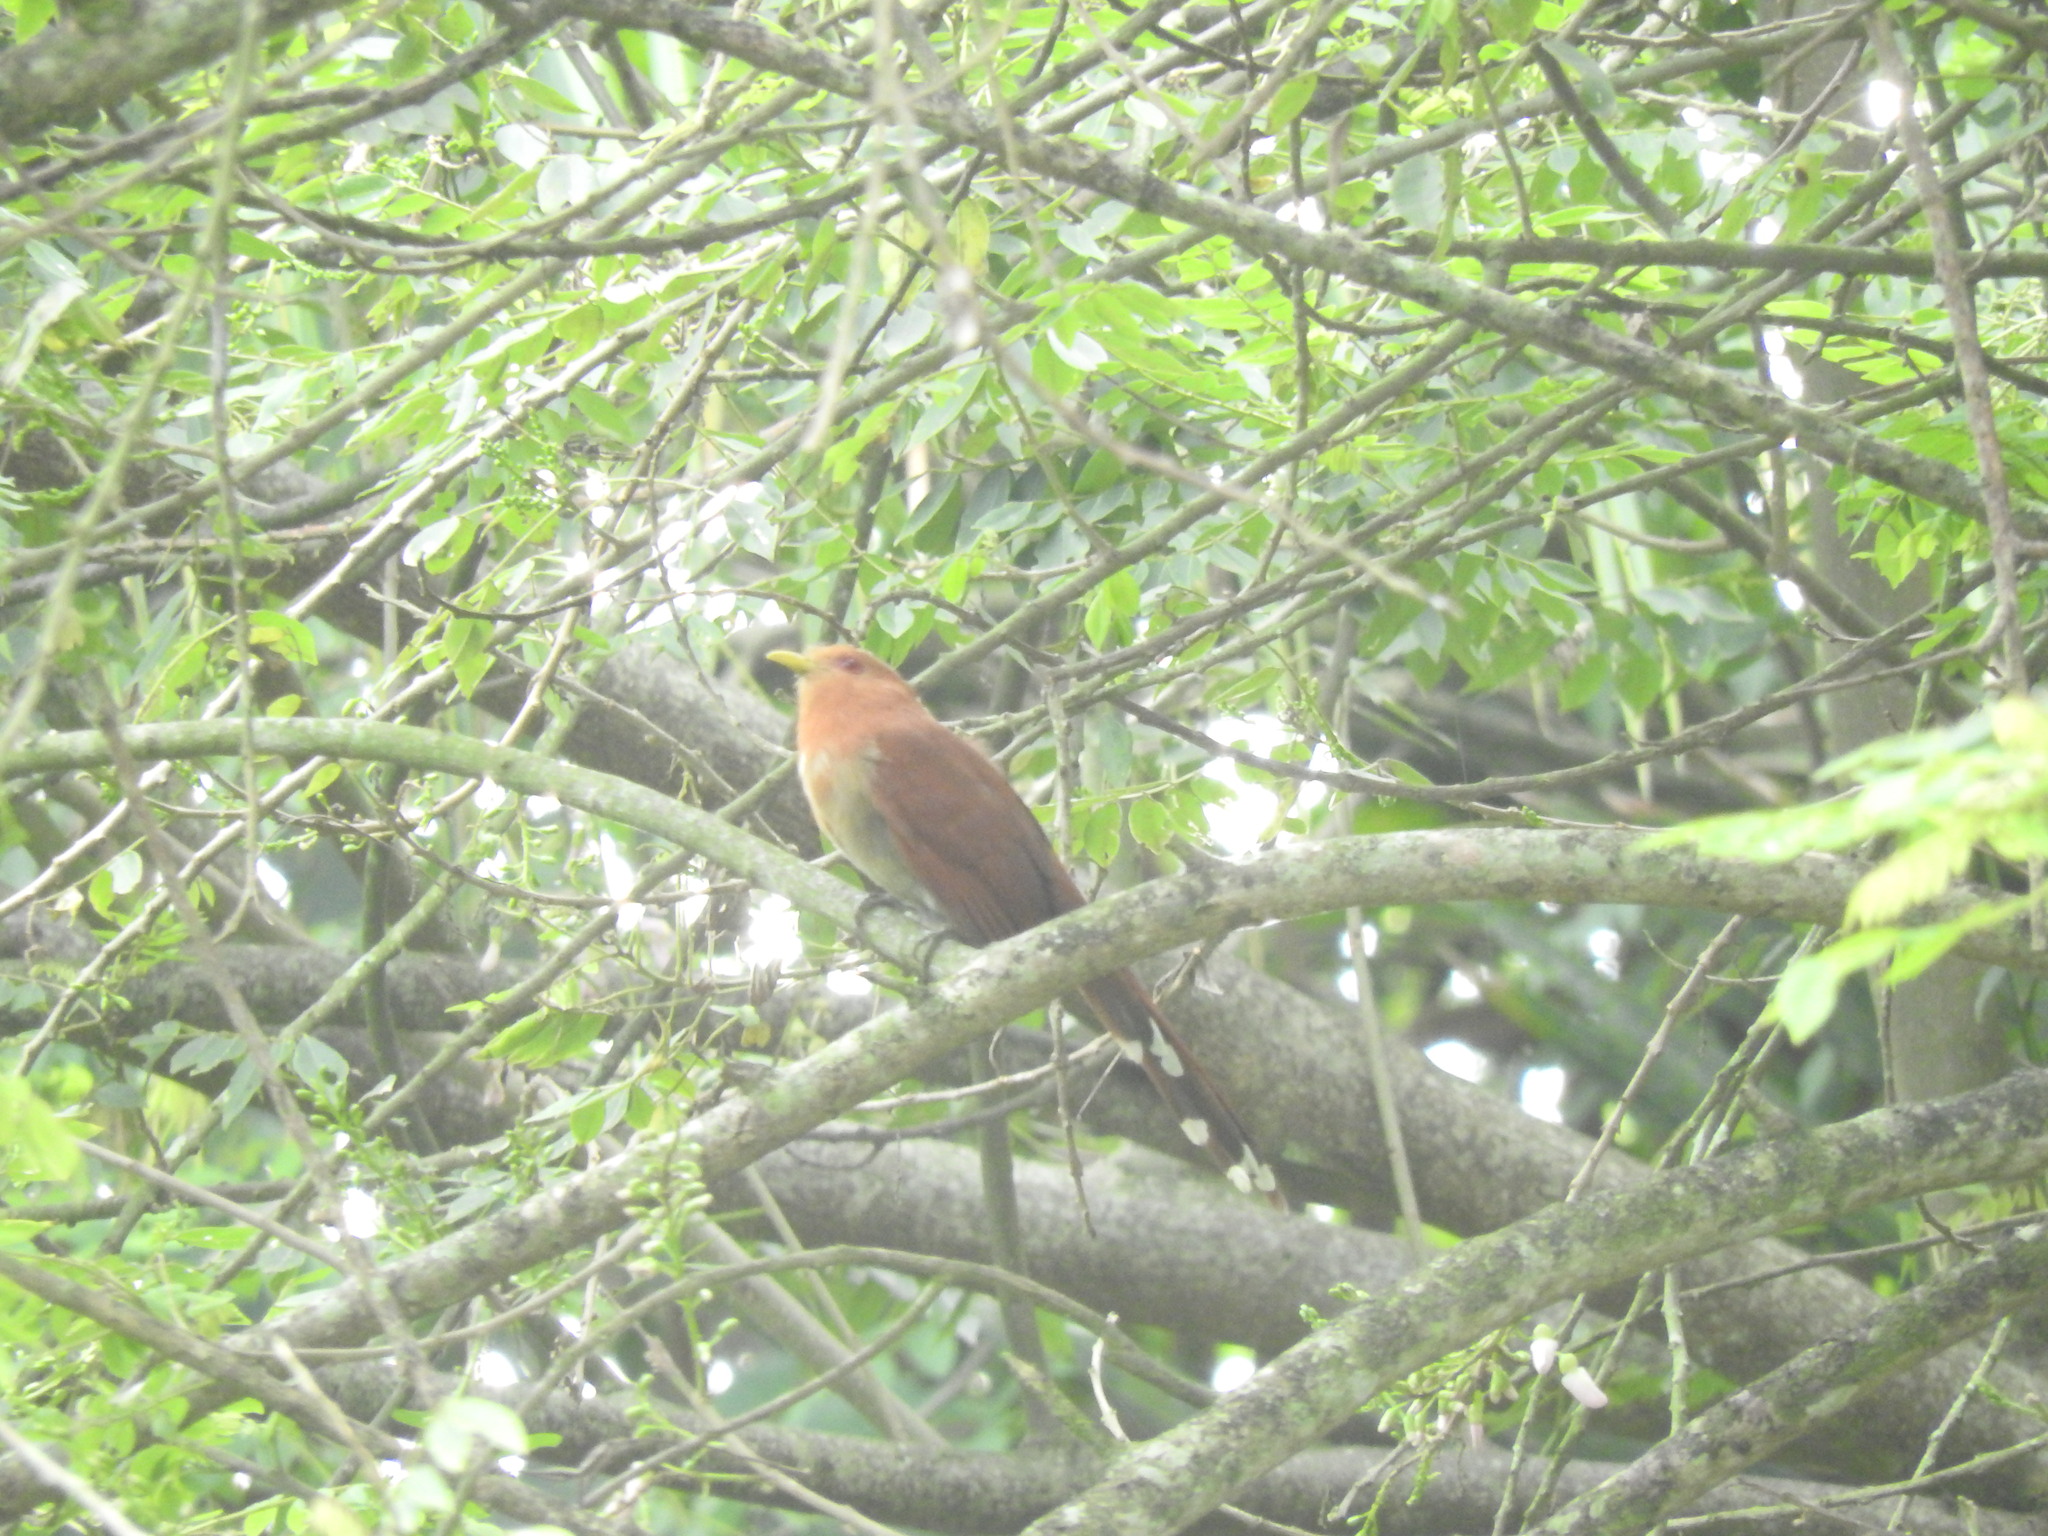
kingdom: Animalia
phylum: Chordata
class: Aves
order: Cuculiformes
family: Cuculidae
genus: Piaya
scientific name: Piaya cayana
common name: Squirrel cuckoo
